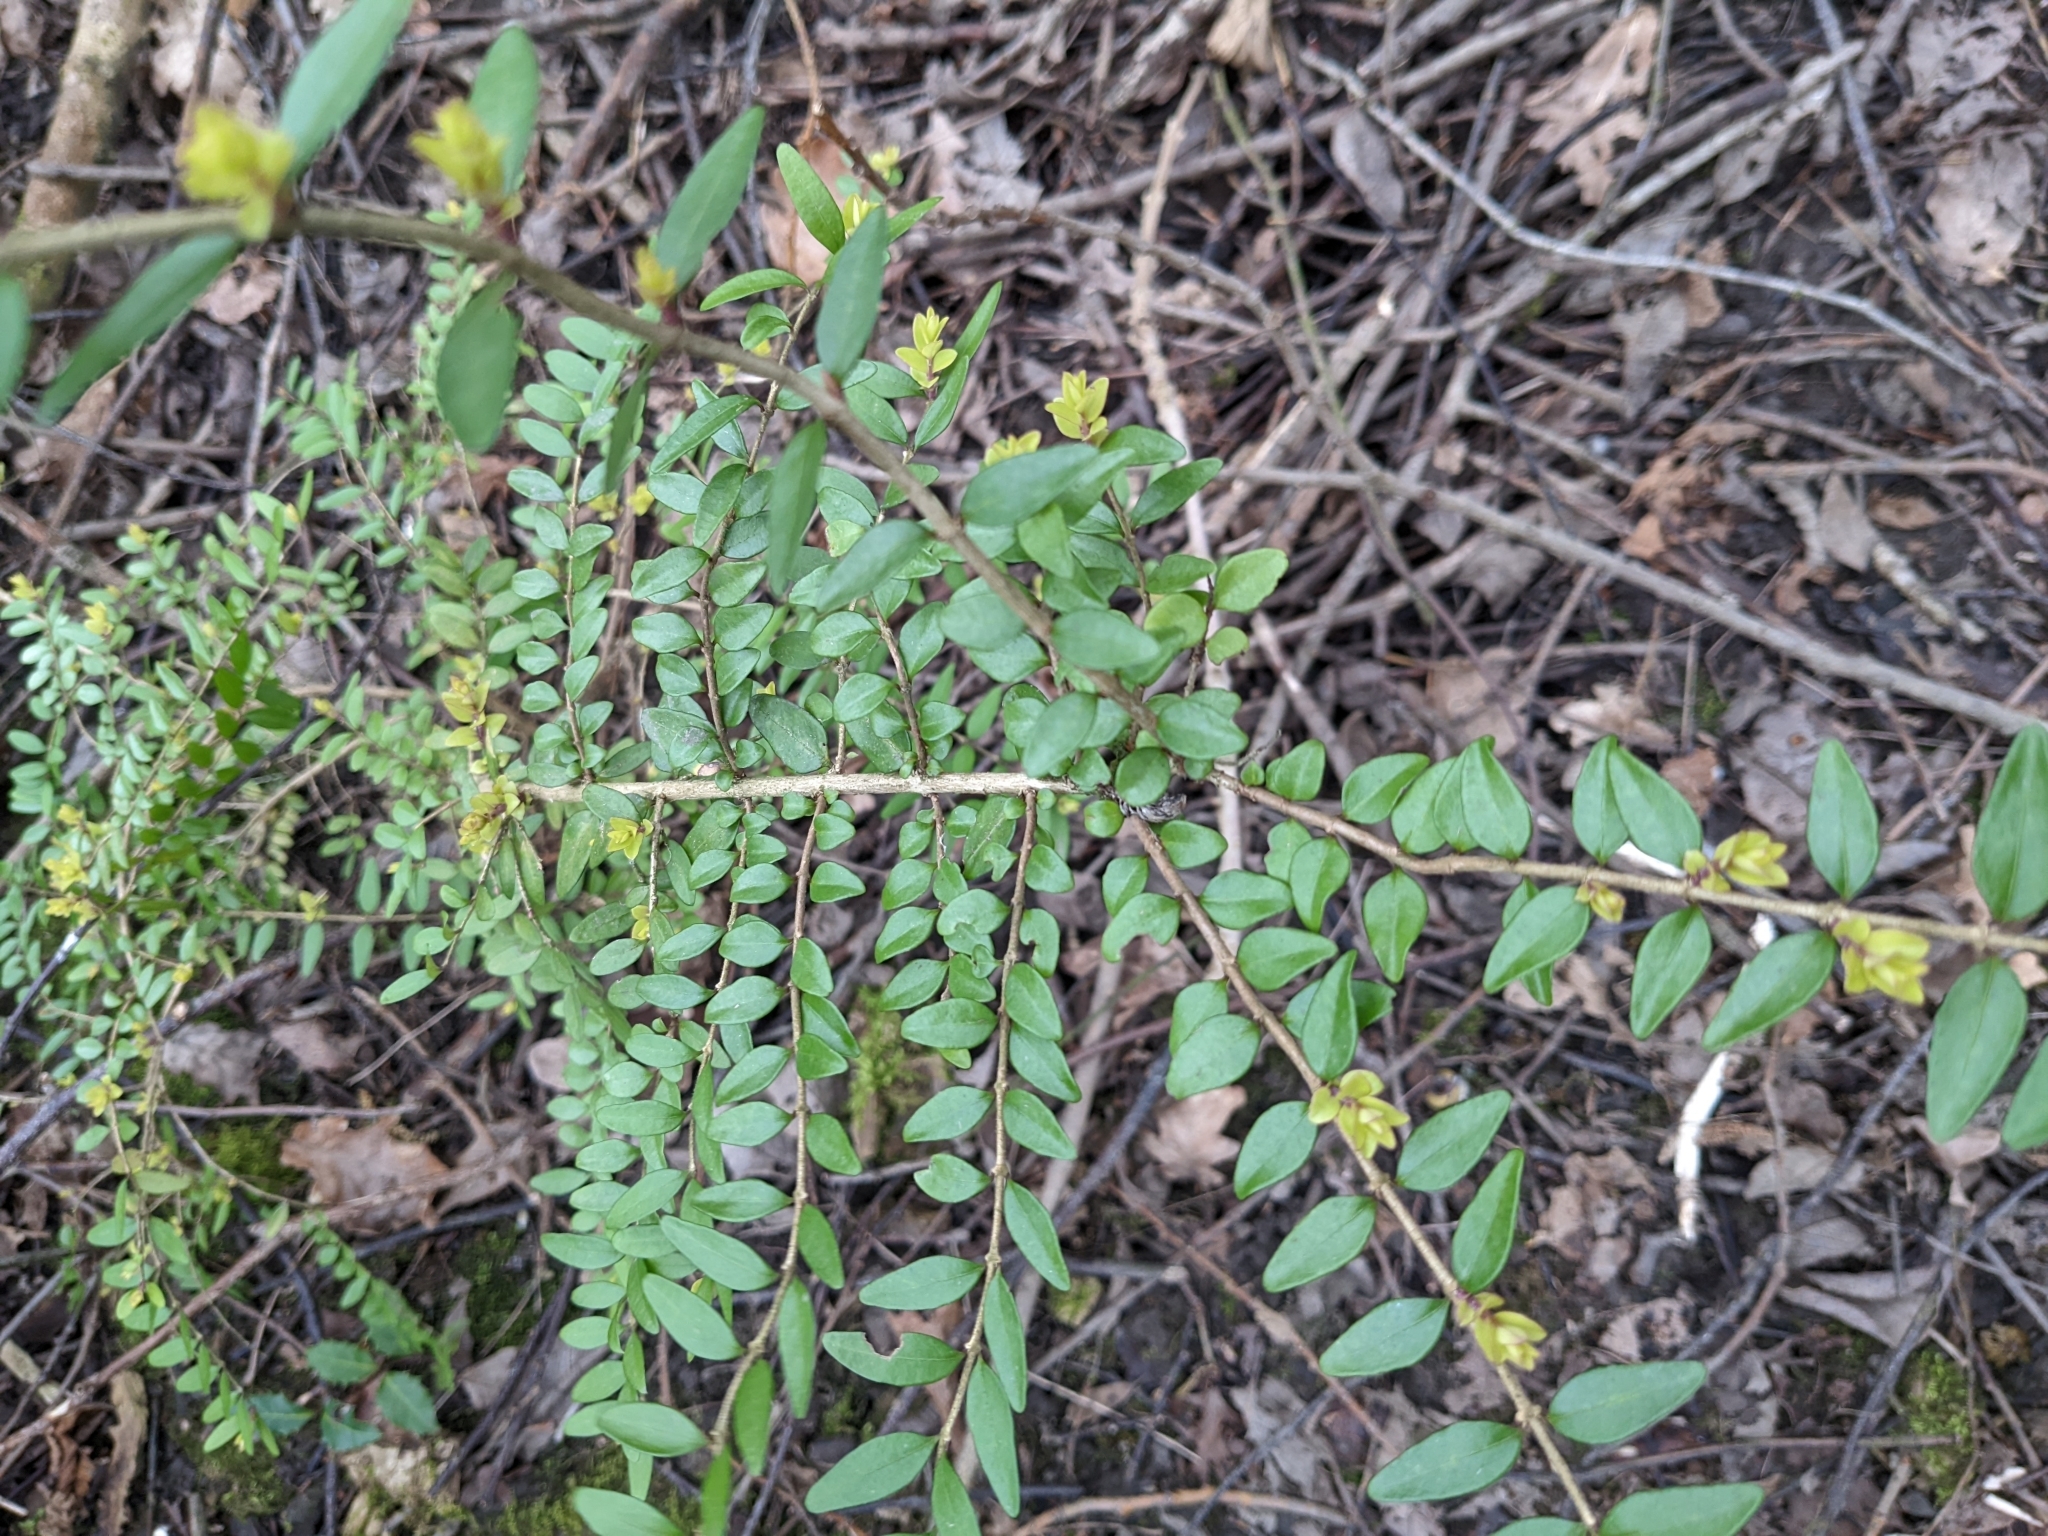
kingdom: Plantae
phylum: Tracheophyta
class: Magnoliopsida
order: Dipsacales
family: Caprifoliaceae
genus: Lonicera
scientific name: Lonicera ligustrina
